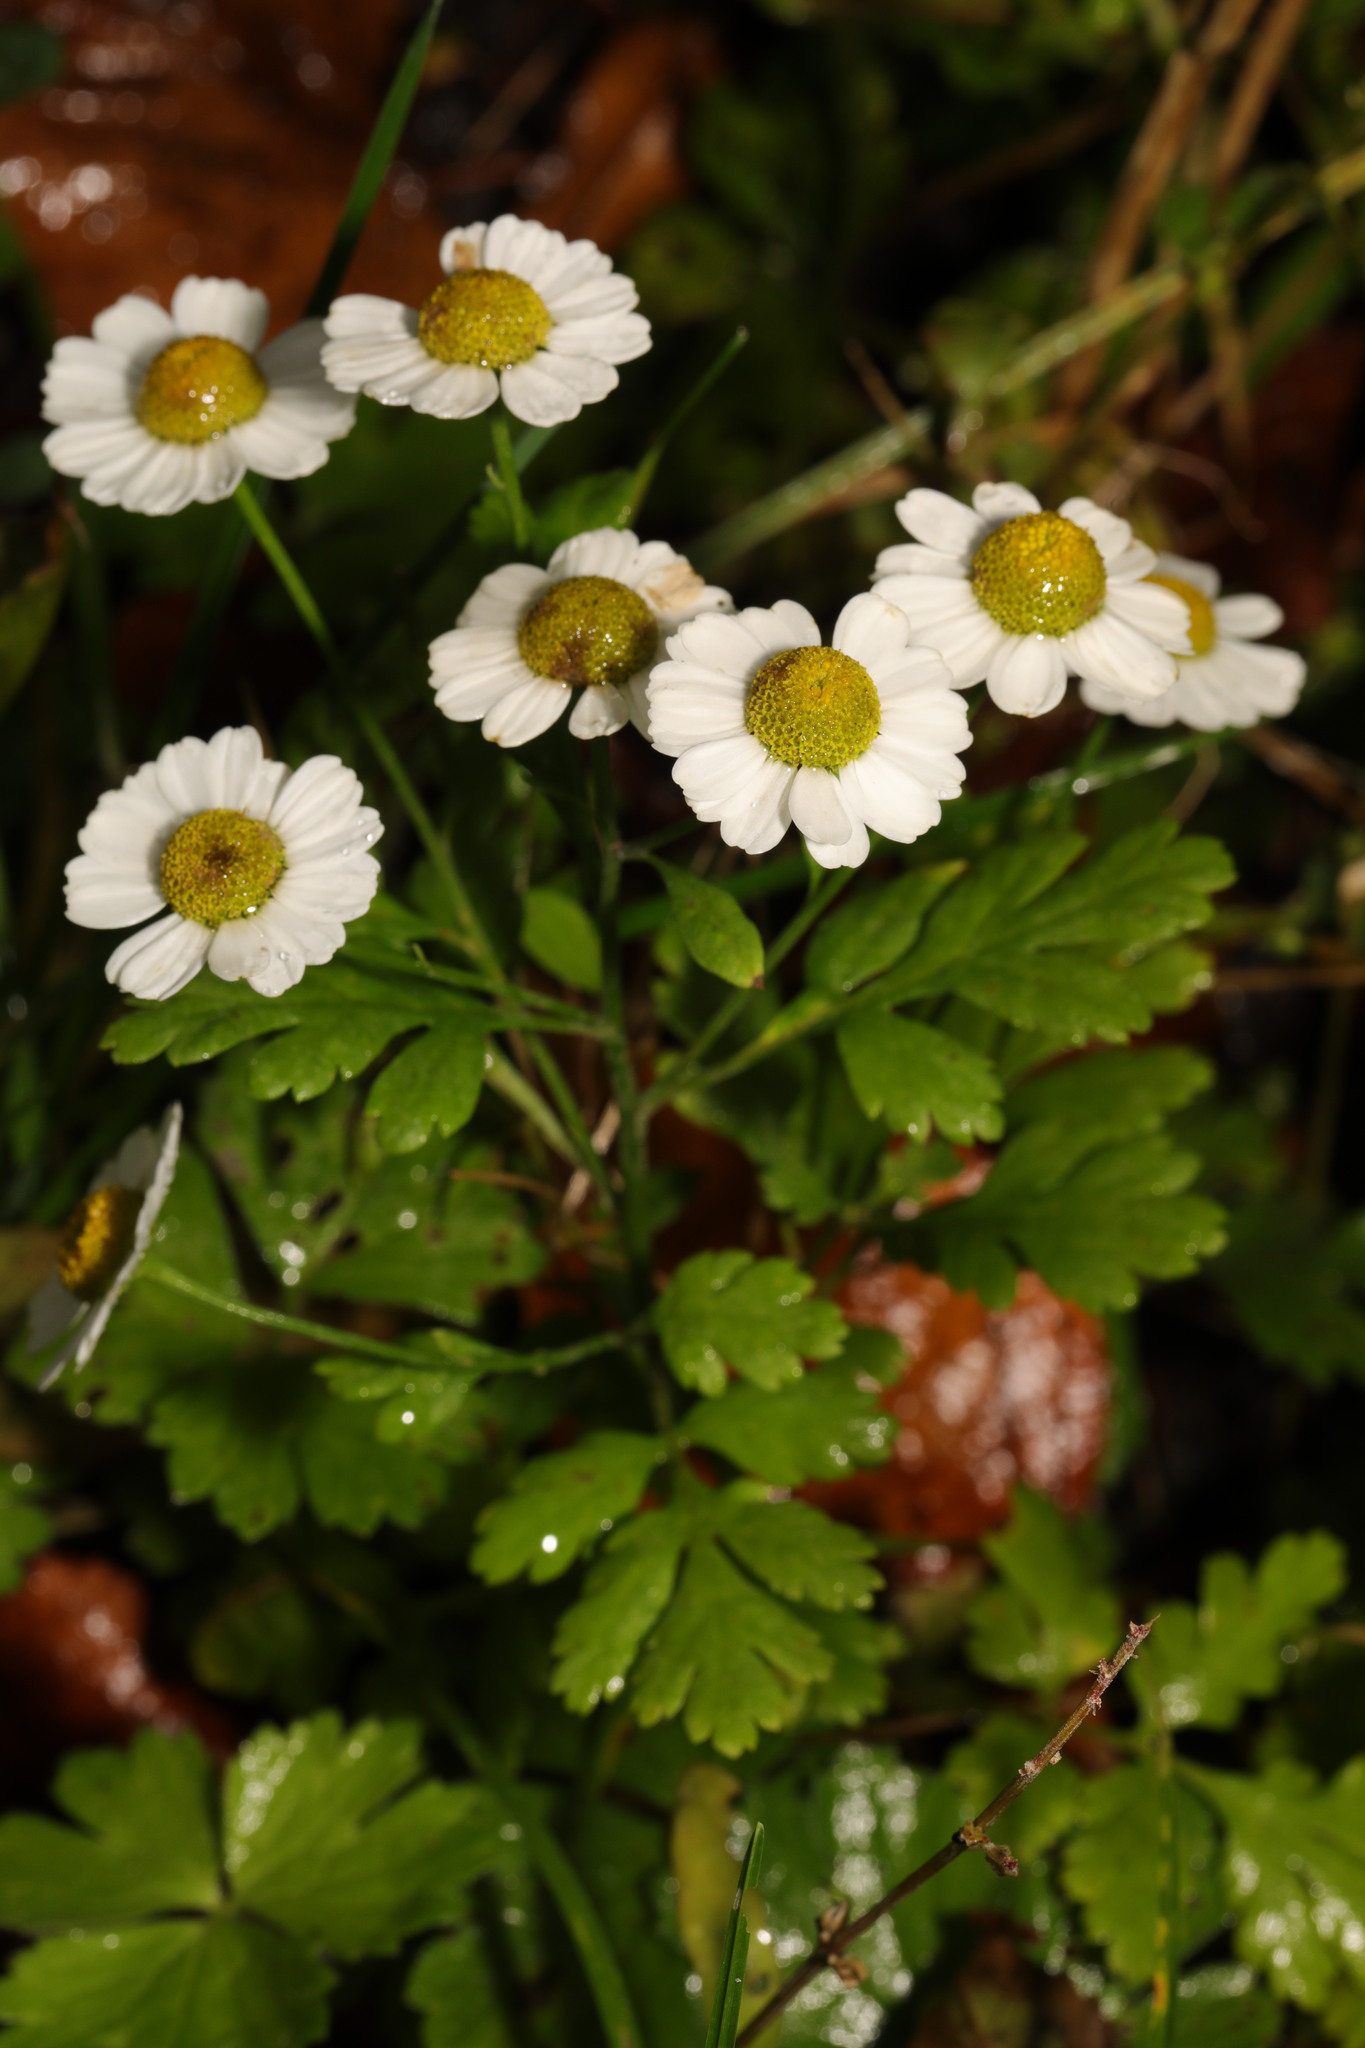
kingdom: Plantae
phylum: Tracheophyta
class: Magnoliopsida
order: Asterales
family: Asteraceae
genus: Tanacetum
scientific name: Tanacetum parthenium
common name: Feverfew
